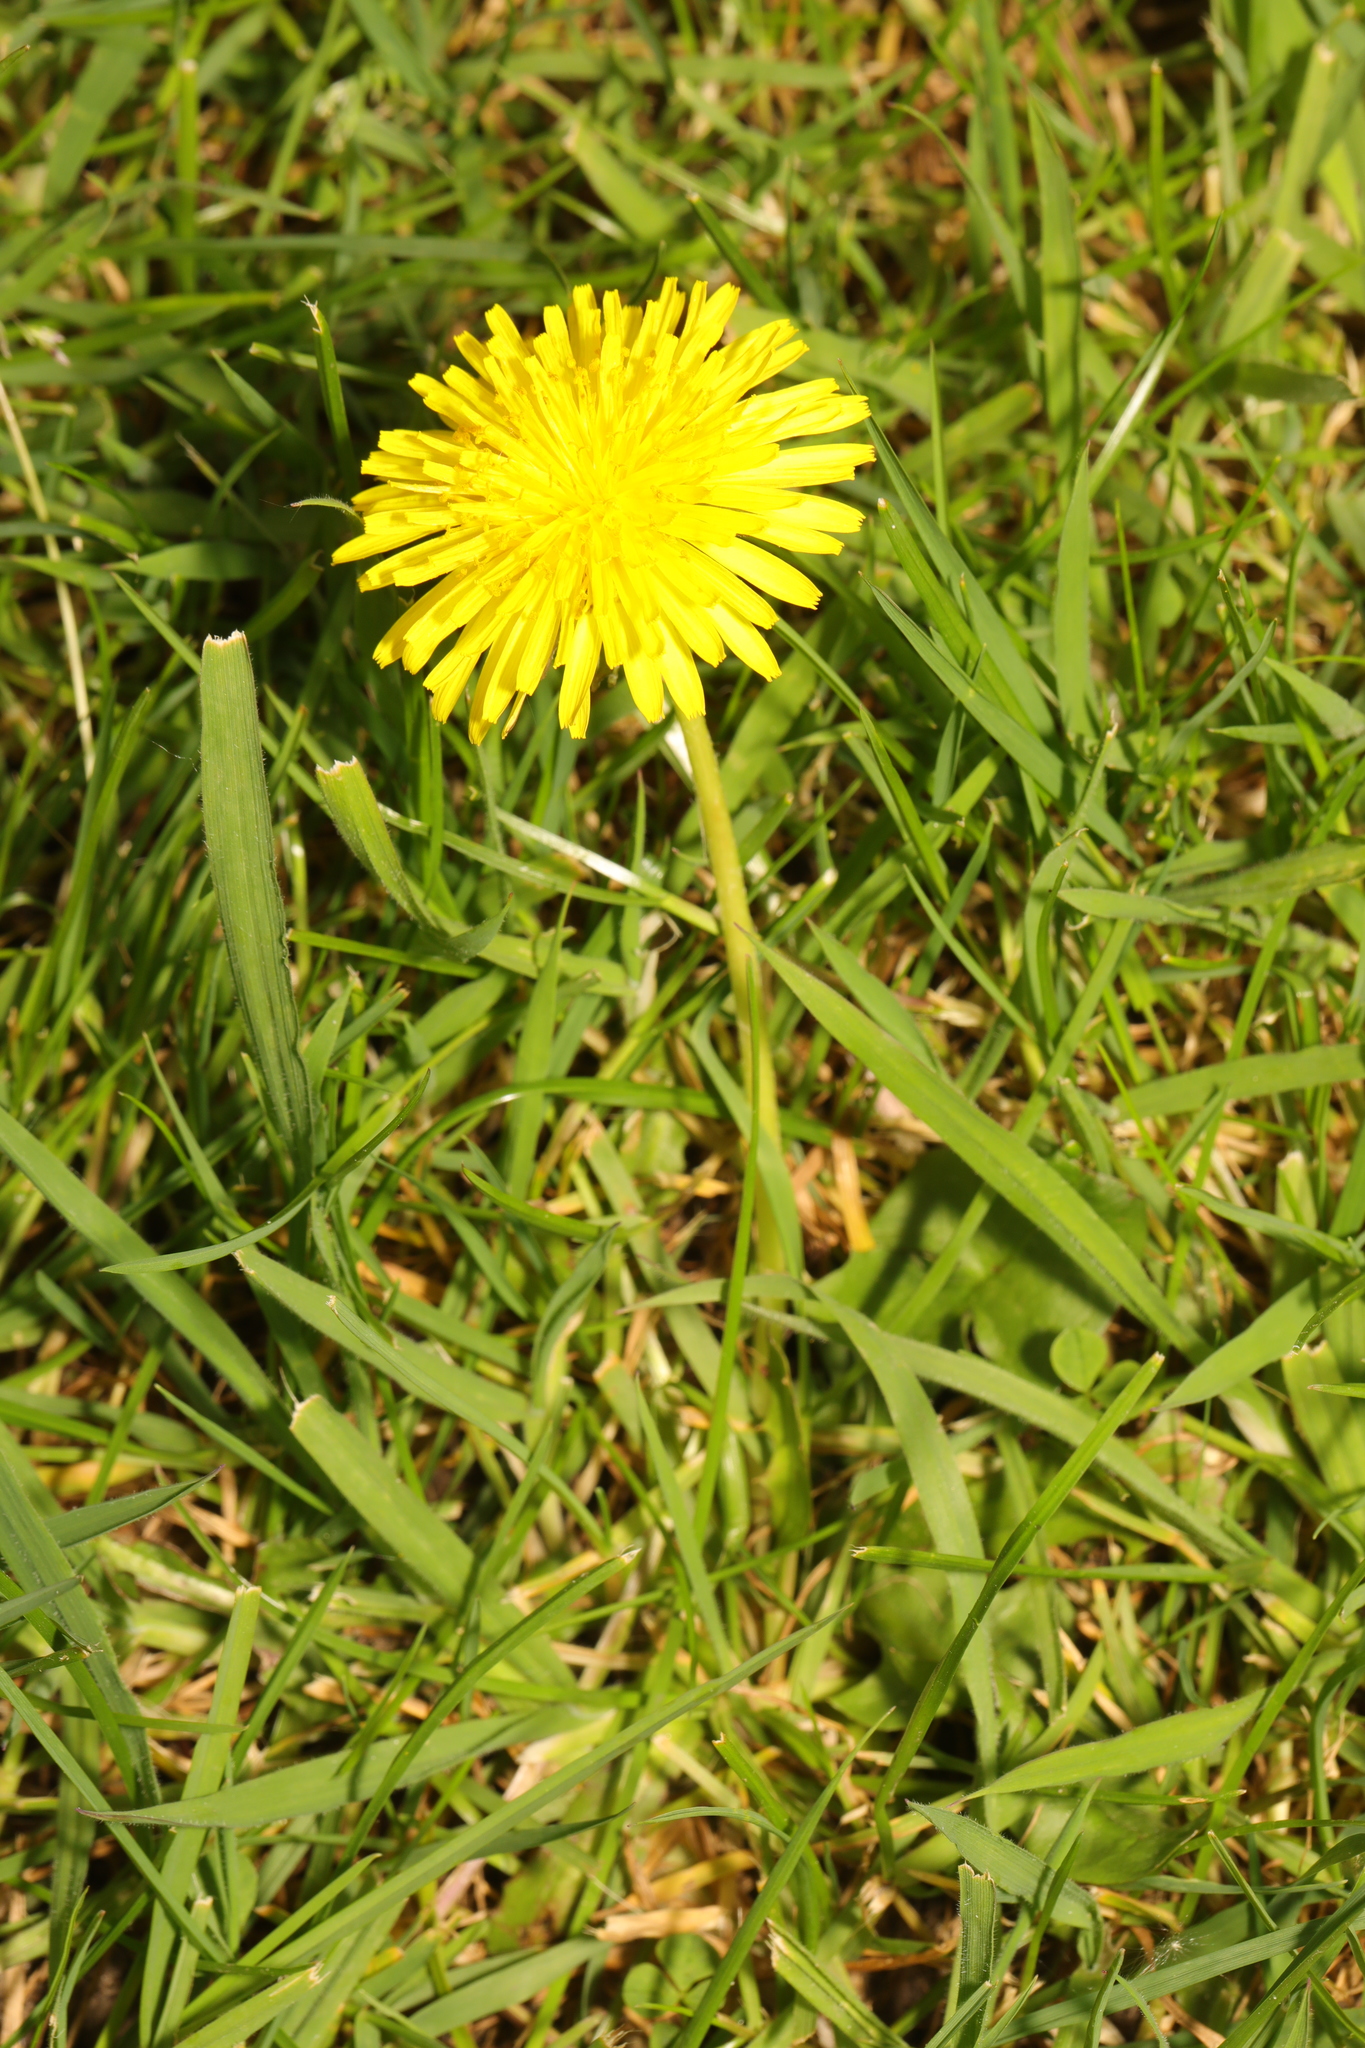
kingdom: Plantae
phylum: Tracheophyta
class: Magnoliopsida
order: Asterales
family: Asteraceae
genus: Taraxacum
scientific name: Taraxacum officinale
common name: Common dandelion
